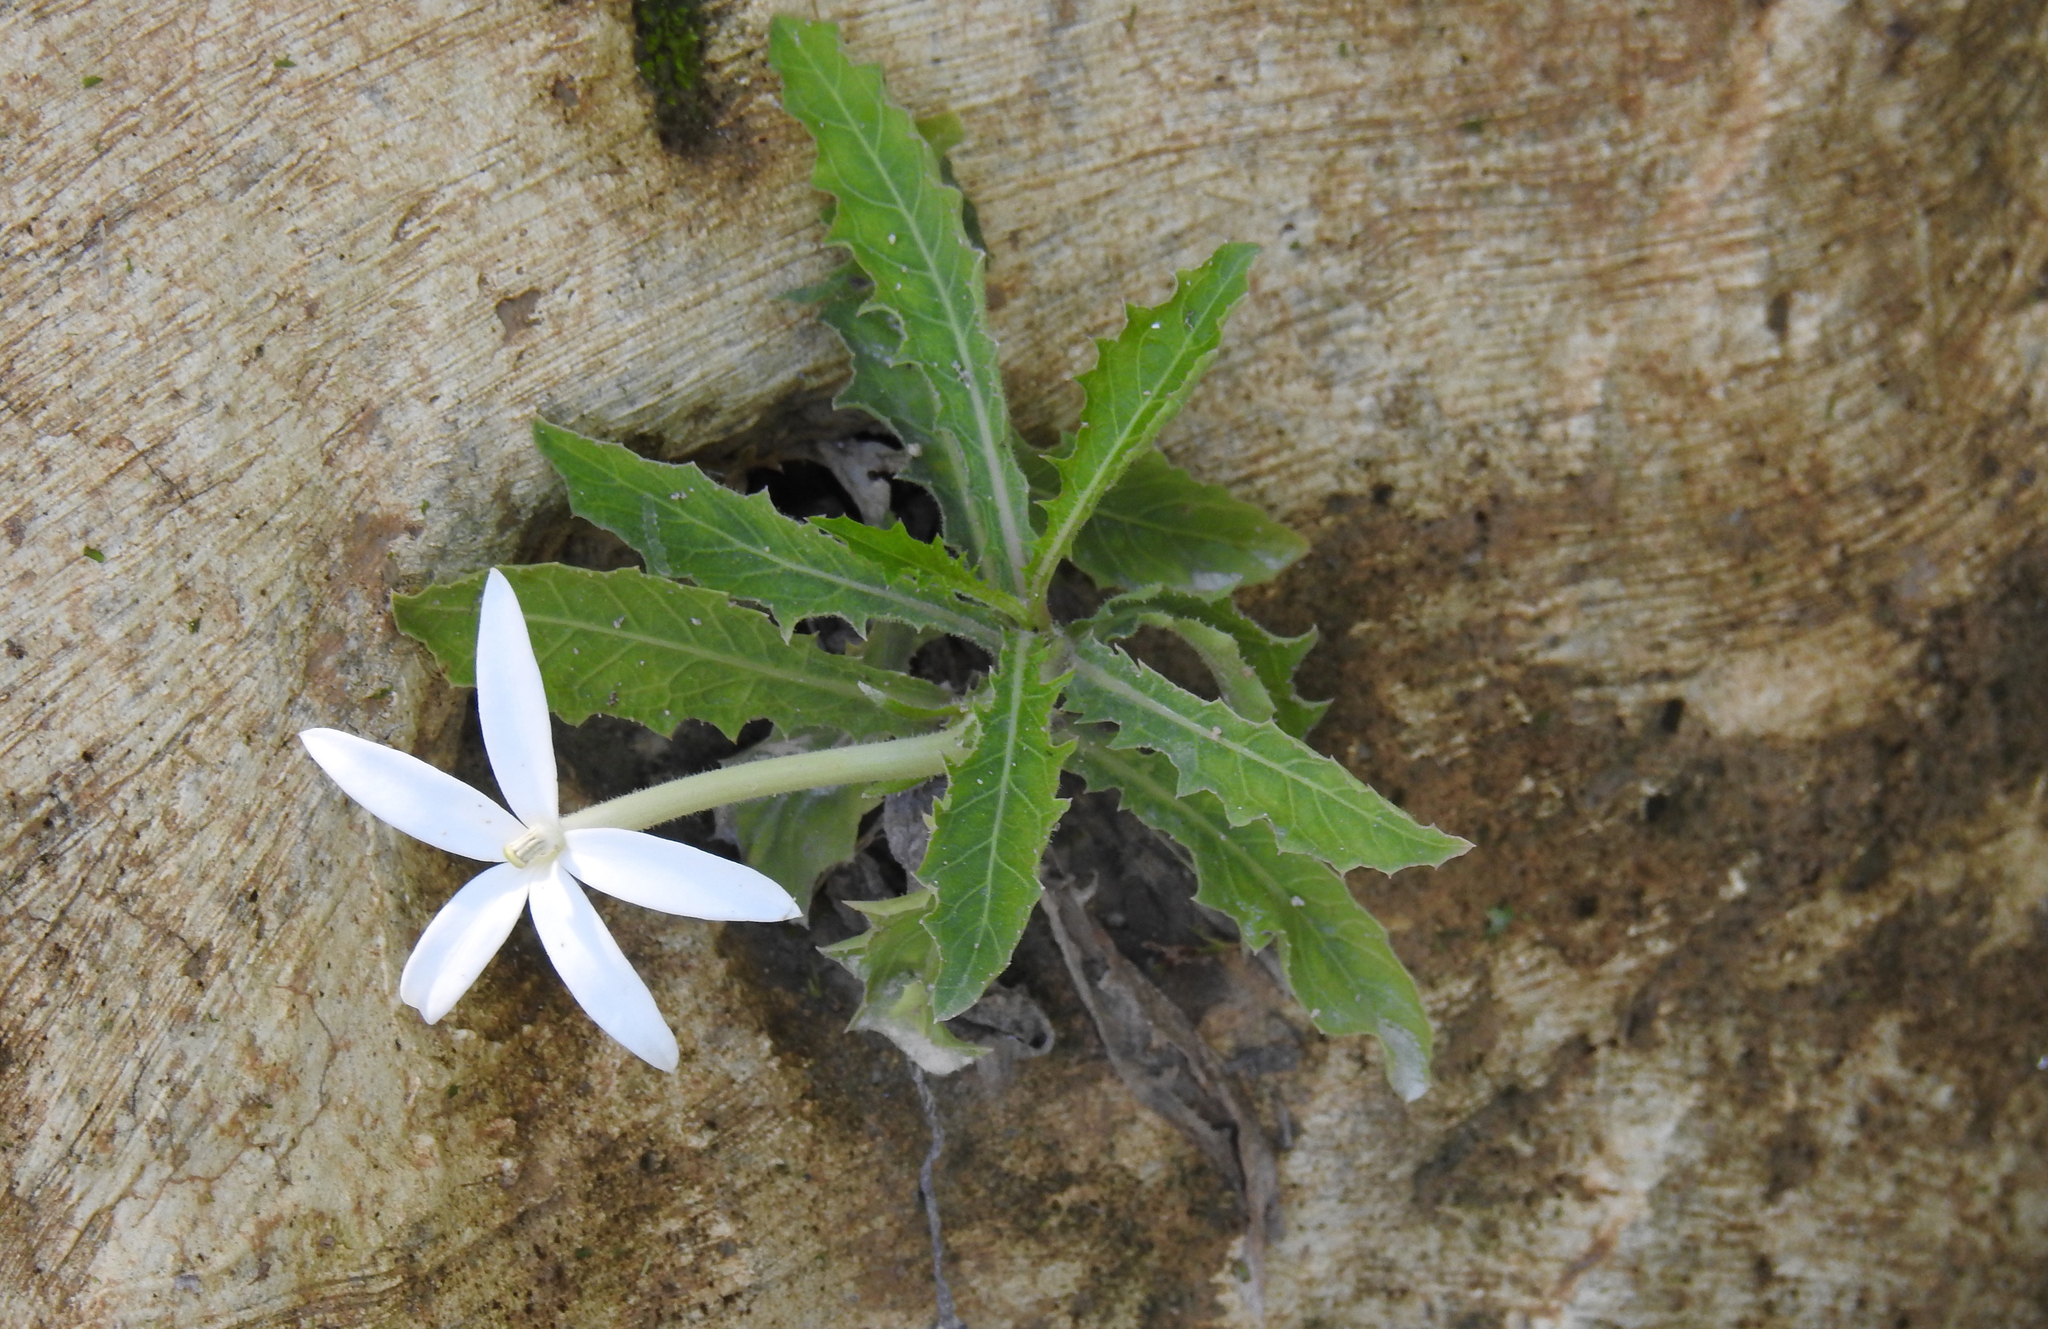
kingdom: Plantae
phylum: Tracheophyta
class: Magnoliopsida
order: Asterales
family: Campanulaceae
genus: Hippobroma
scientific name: Hippobroma longiflora
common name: Madamfate
